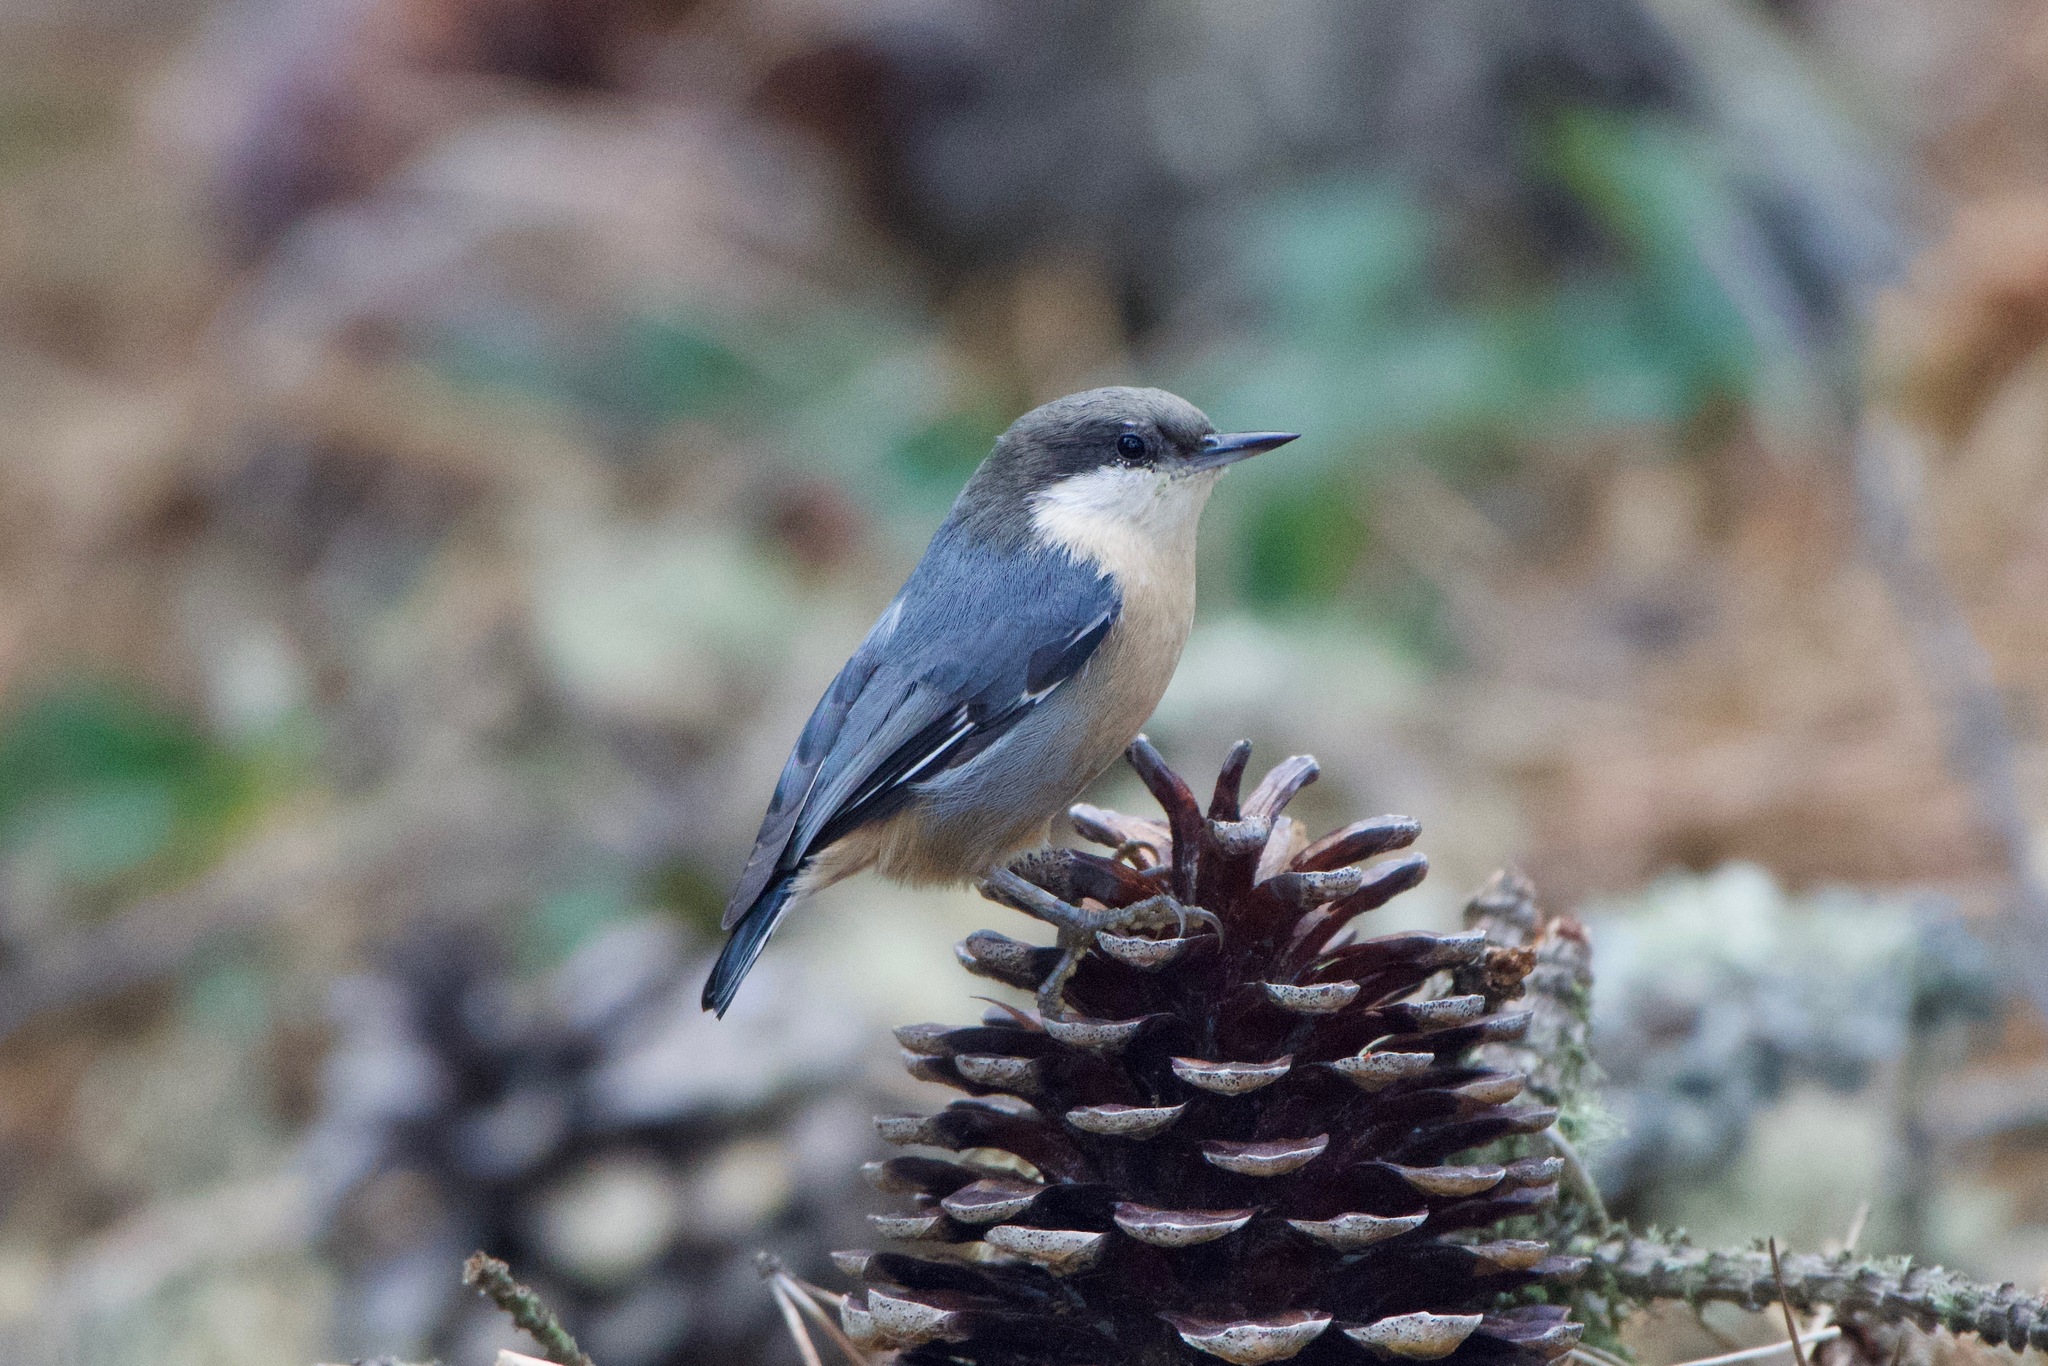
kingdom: Animalia
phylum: Chordata
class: Aves
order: Passeriformes
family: Sittidae
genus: Sitta
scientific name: Sitta pygmaea
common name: Pygmy nuthatch
